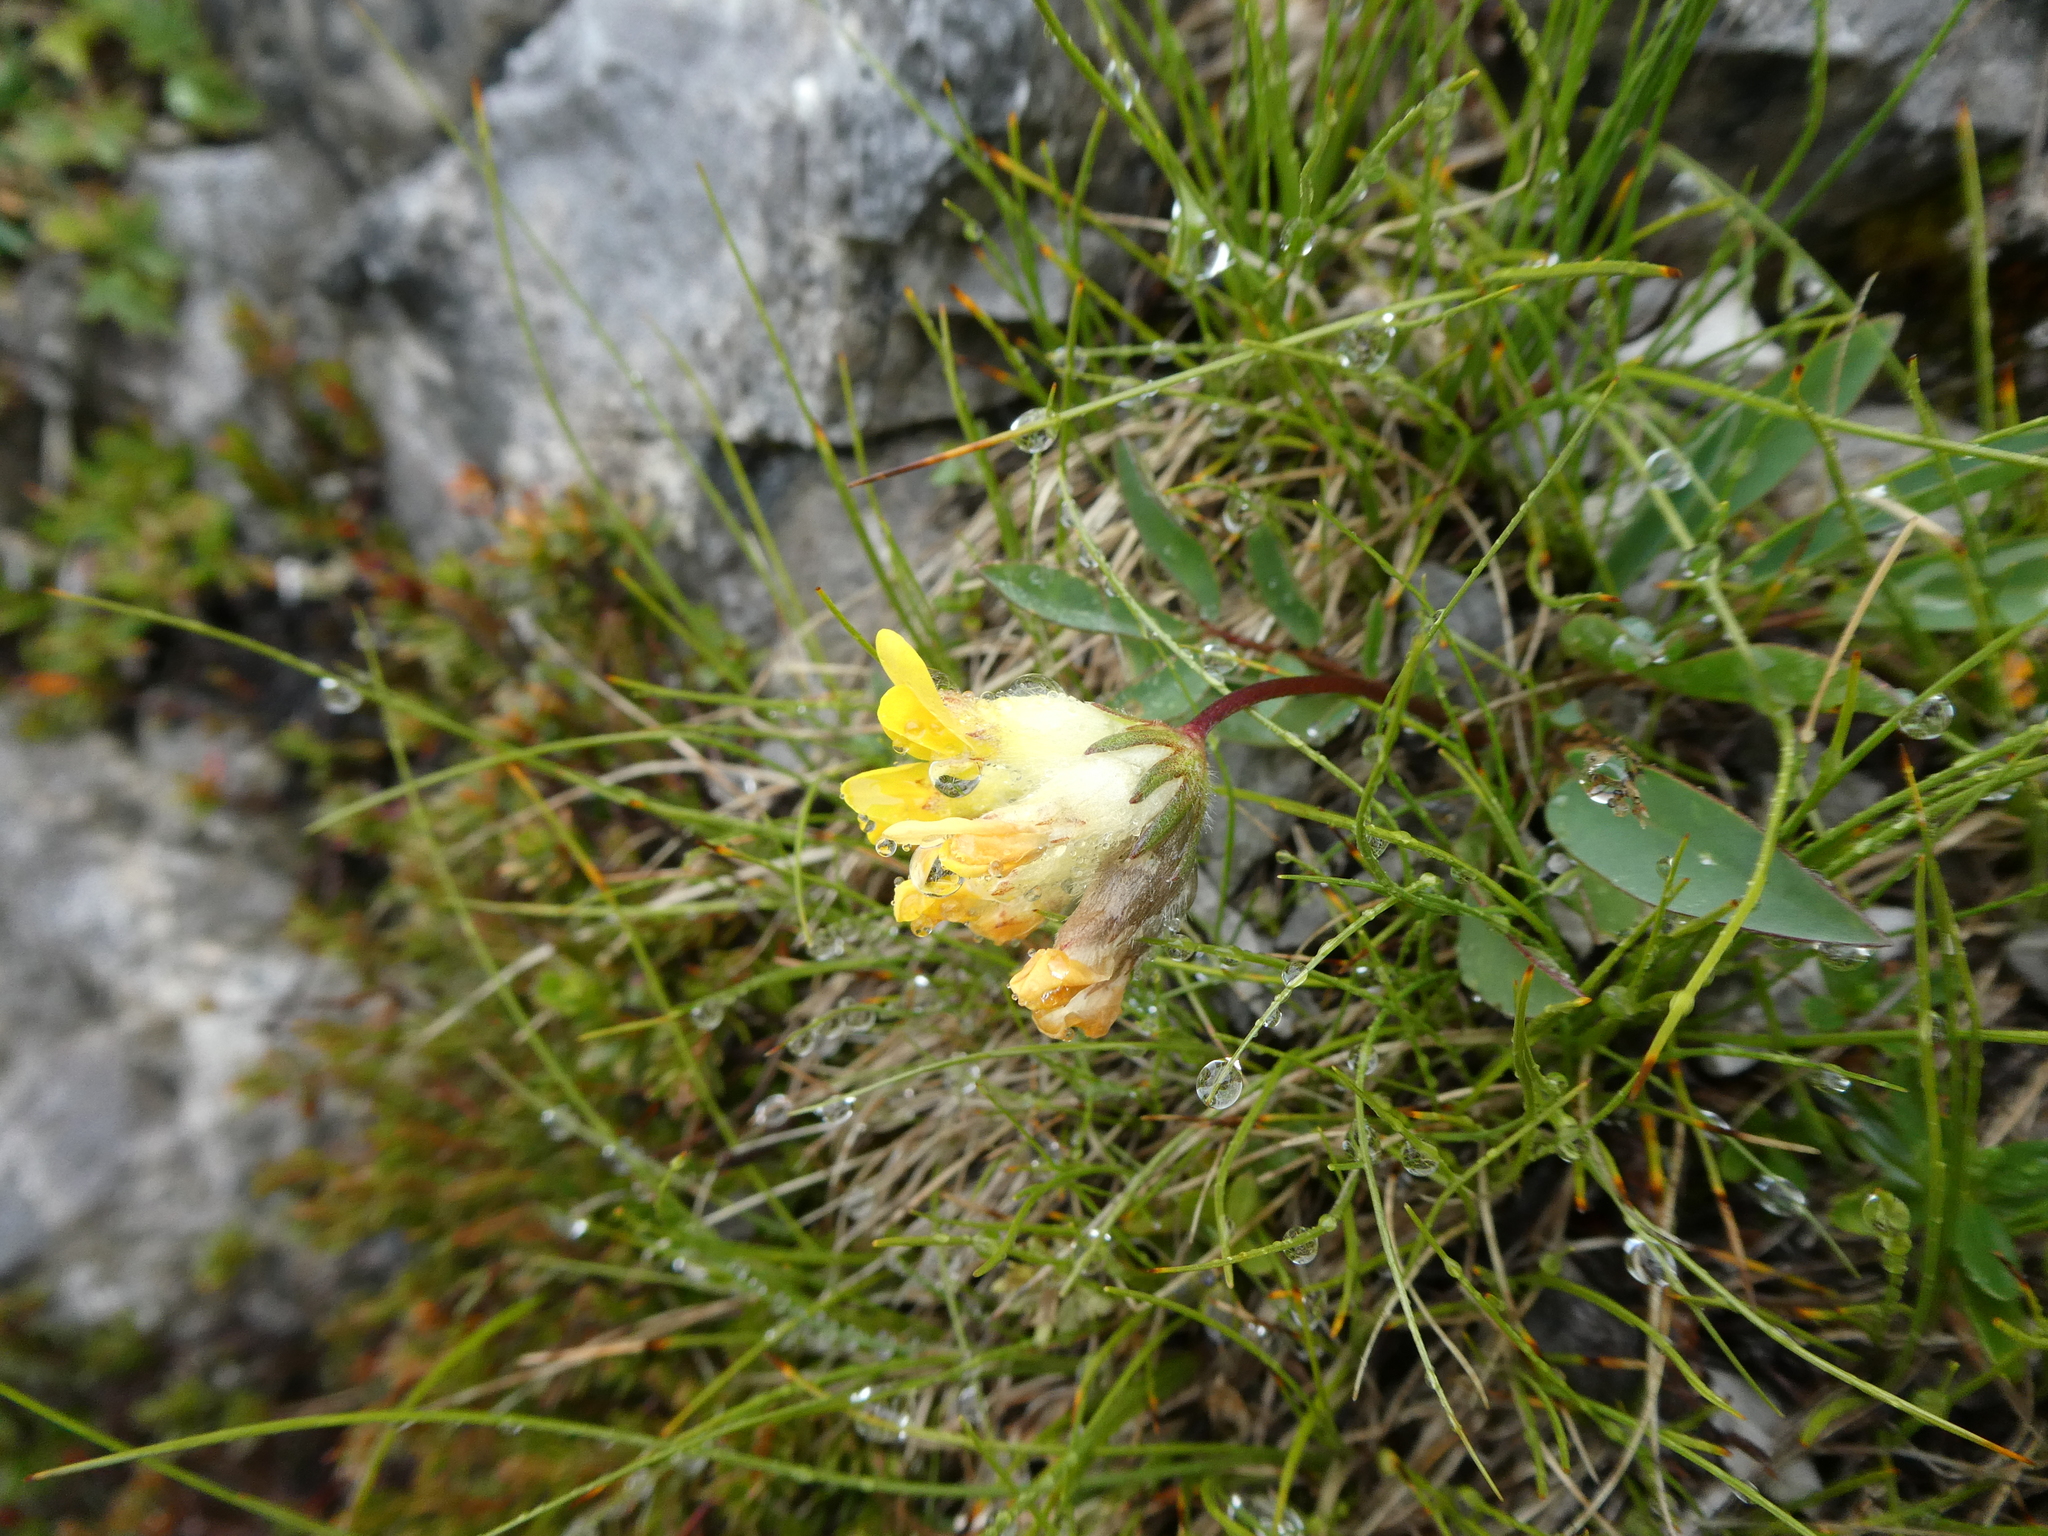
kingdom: Plantae
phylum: Tracheophyta
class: Magnoliopsida
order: Fabales
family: Fabaceae
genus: Anthyllis
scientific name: Anthyllis vulneraria
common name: Kidney vetch
